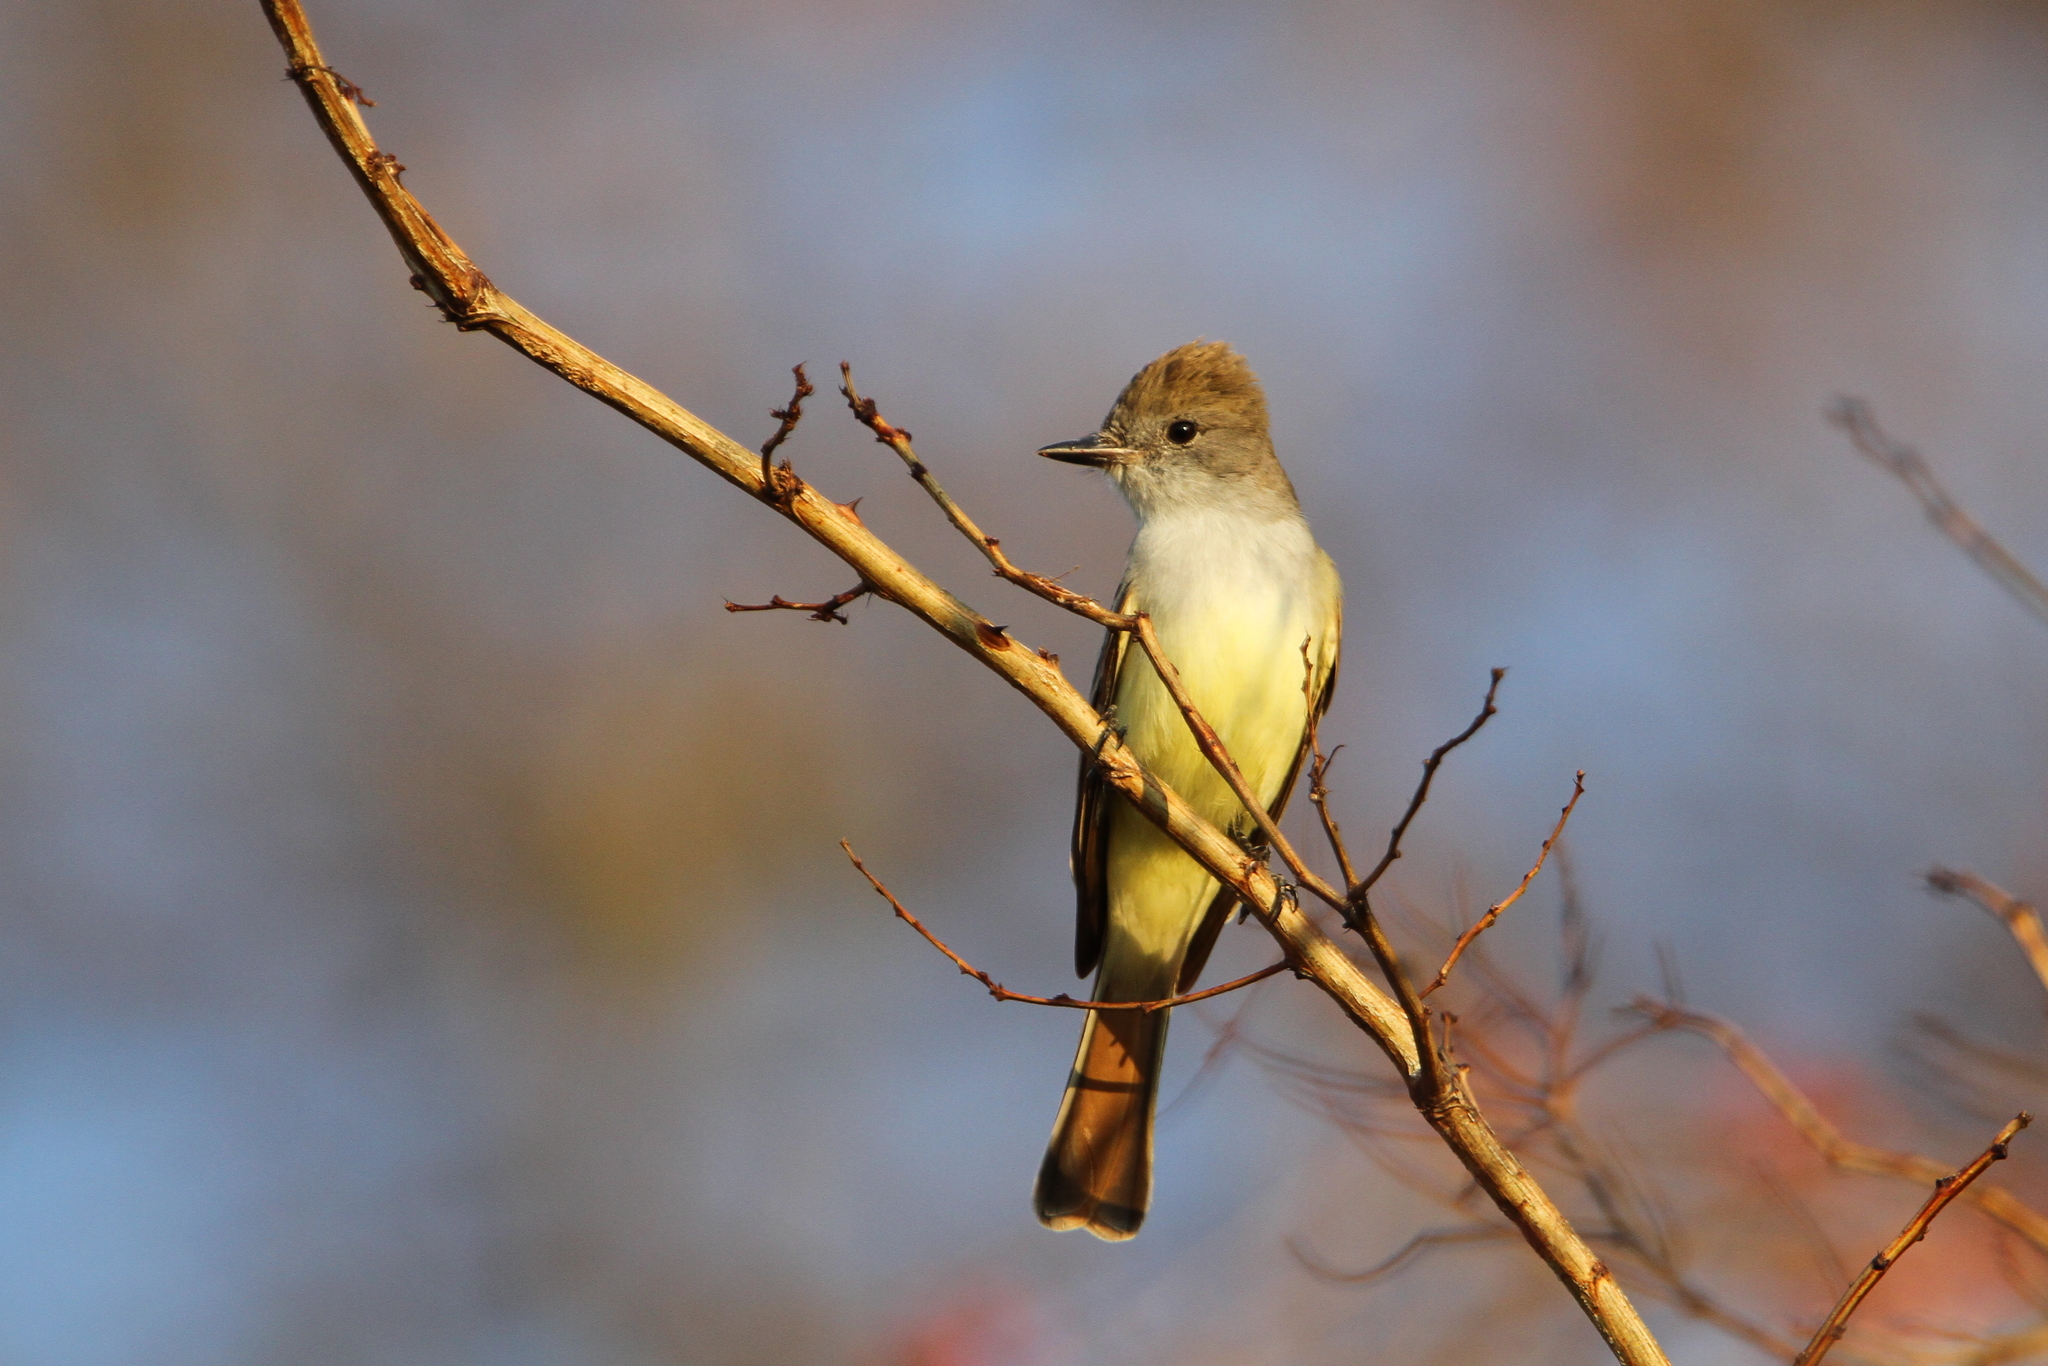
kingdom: Animalia
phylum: Chordata
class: Aves
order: Passeriformes
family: Tyrannidae
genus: Myiarchus
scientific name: Myiarchus nuttingi
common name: Nutting's flycatcher
